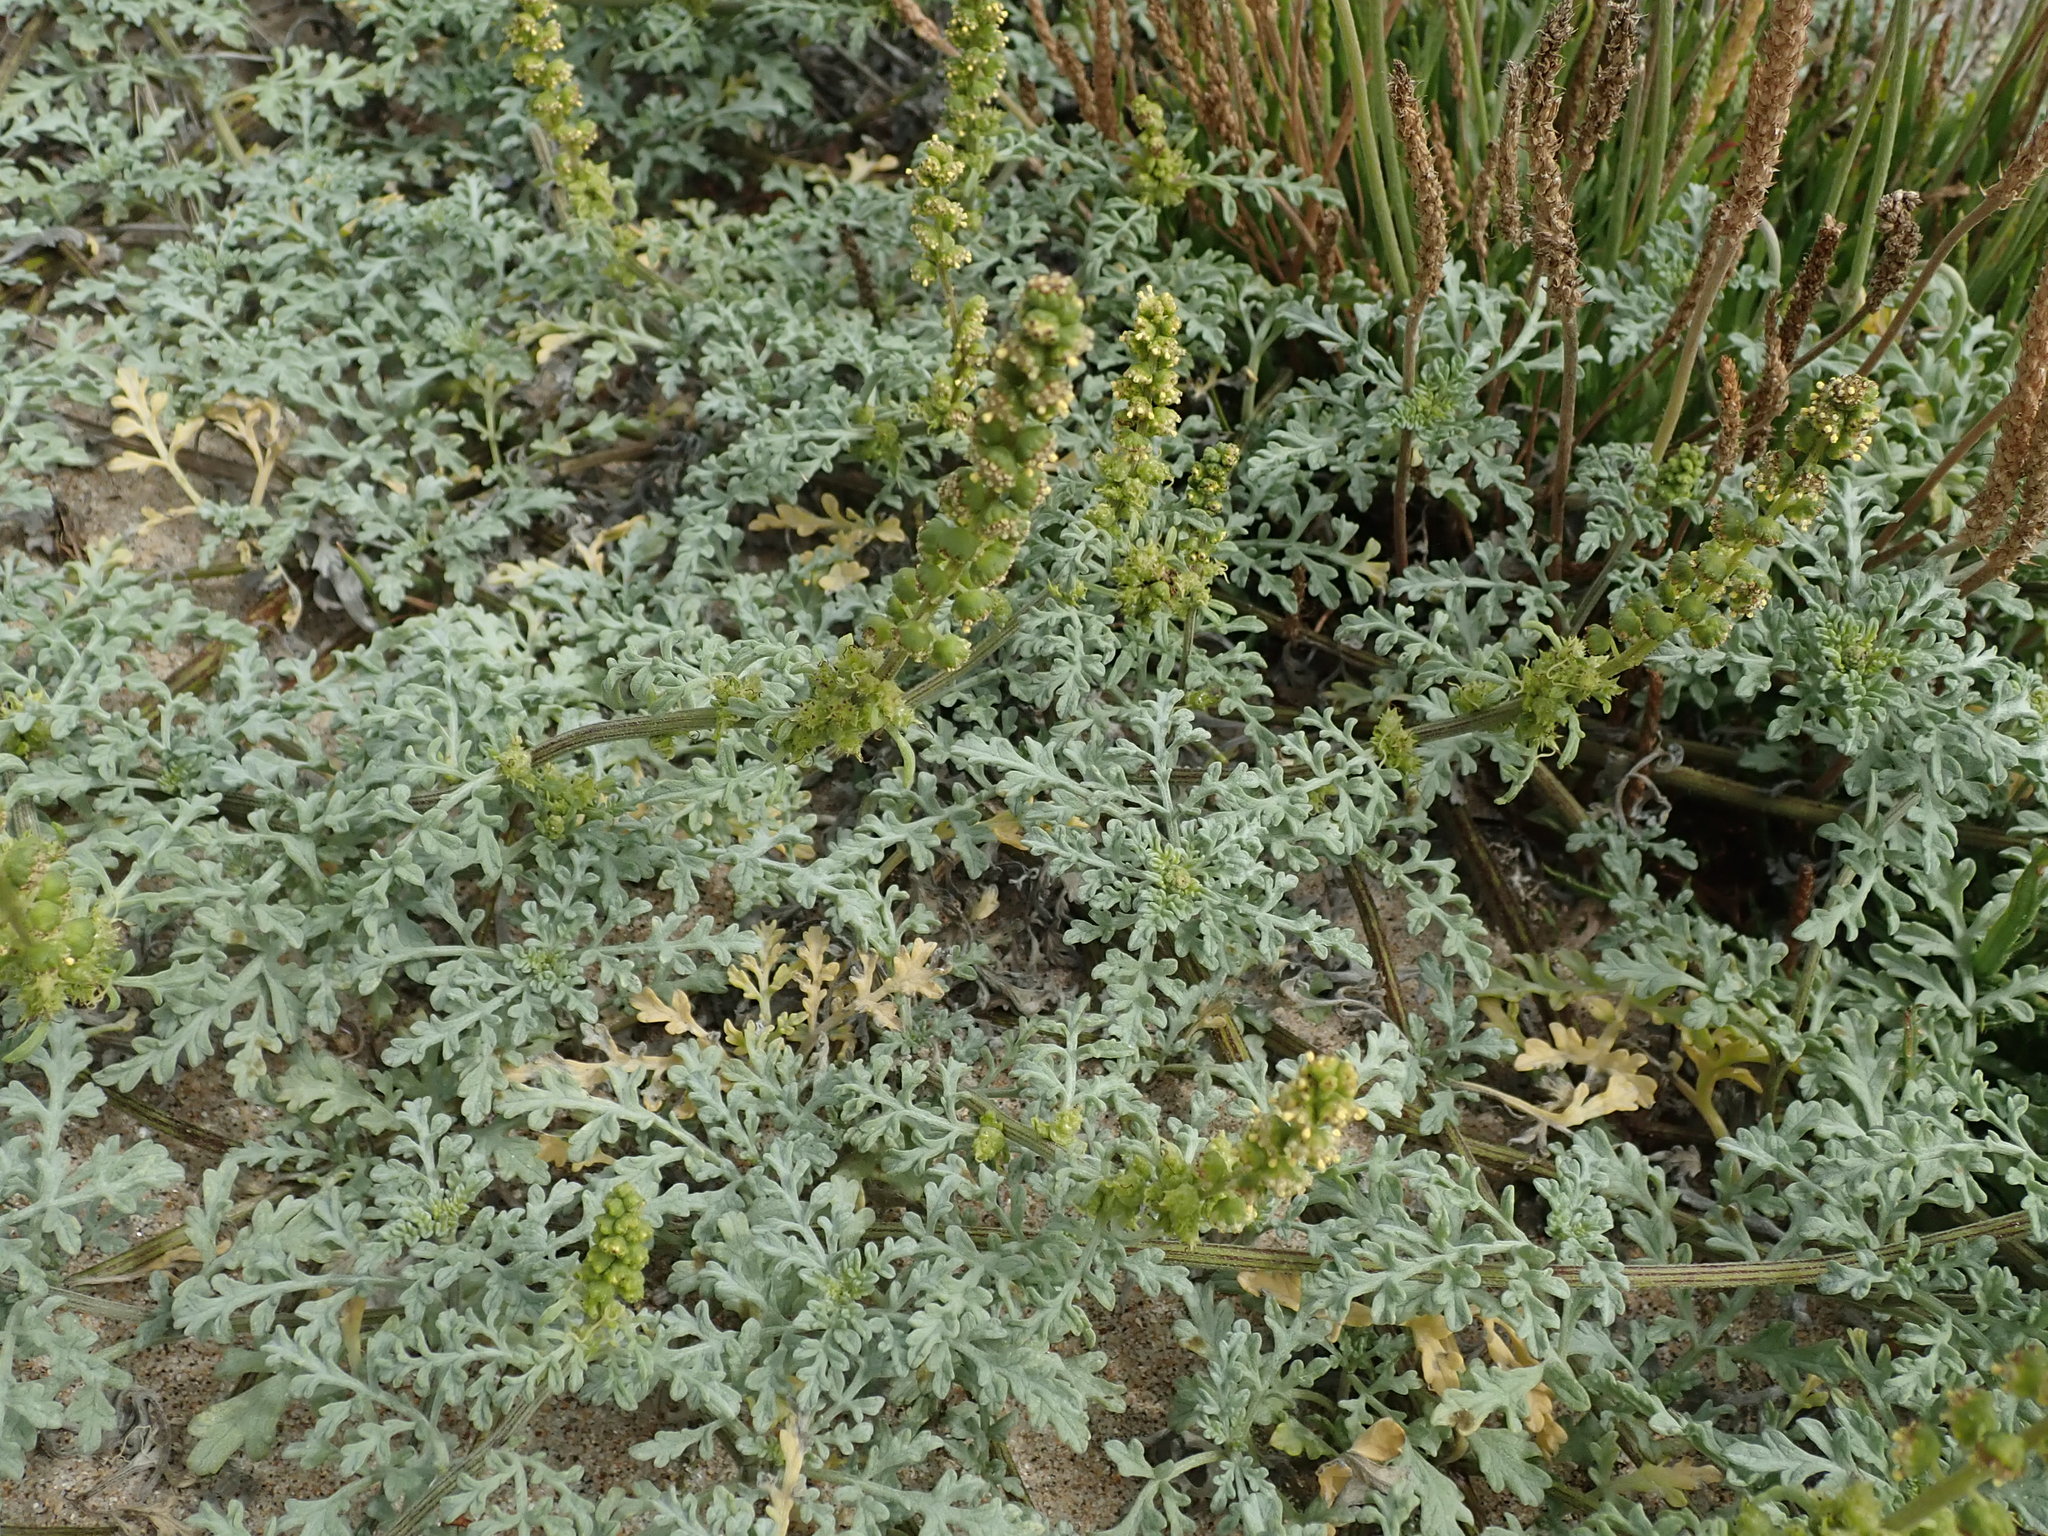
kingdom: Plantae
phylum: Tracheophyta
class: Magnoliopsida
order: Asterales
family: Asteraceae
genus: Ambrosia
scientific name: Ambrosia chamissonis
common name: Beachbur
